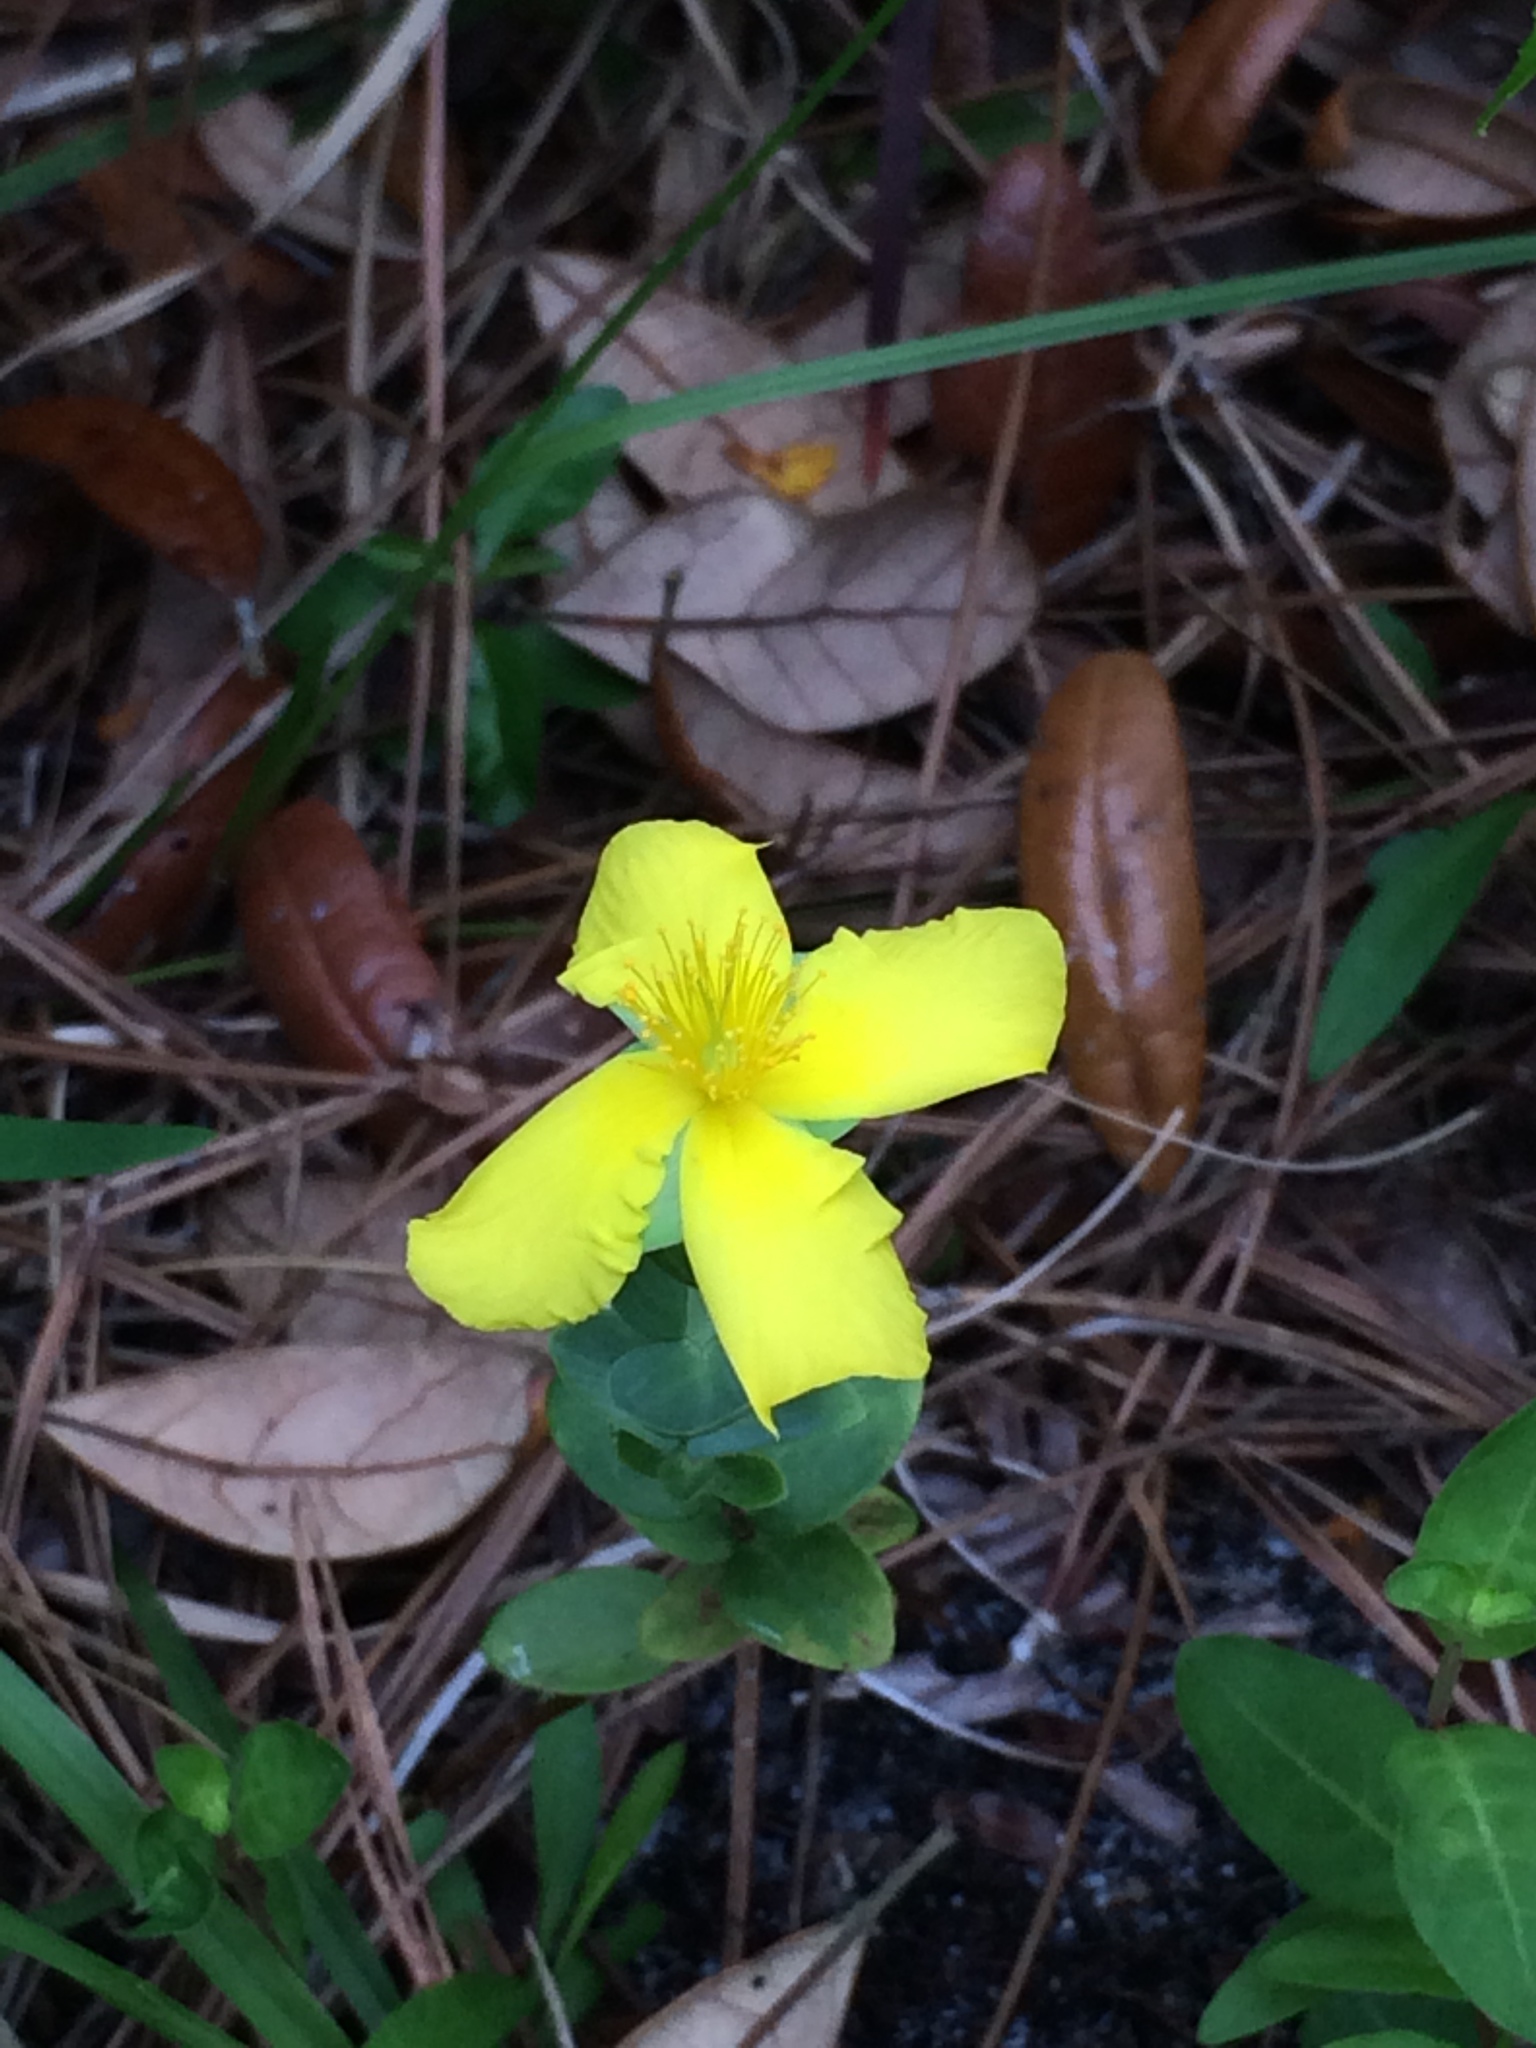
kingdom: Plantae
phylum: Tracheophyta
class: Magnoliopsida
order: Malpighiales
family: Hypericaceae
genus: Hypericum
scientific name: Hypericum tetrapetalum
